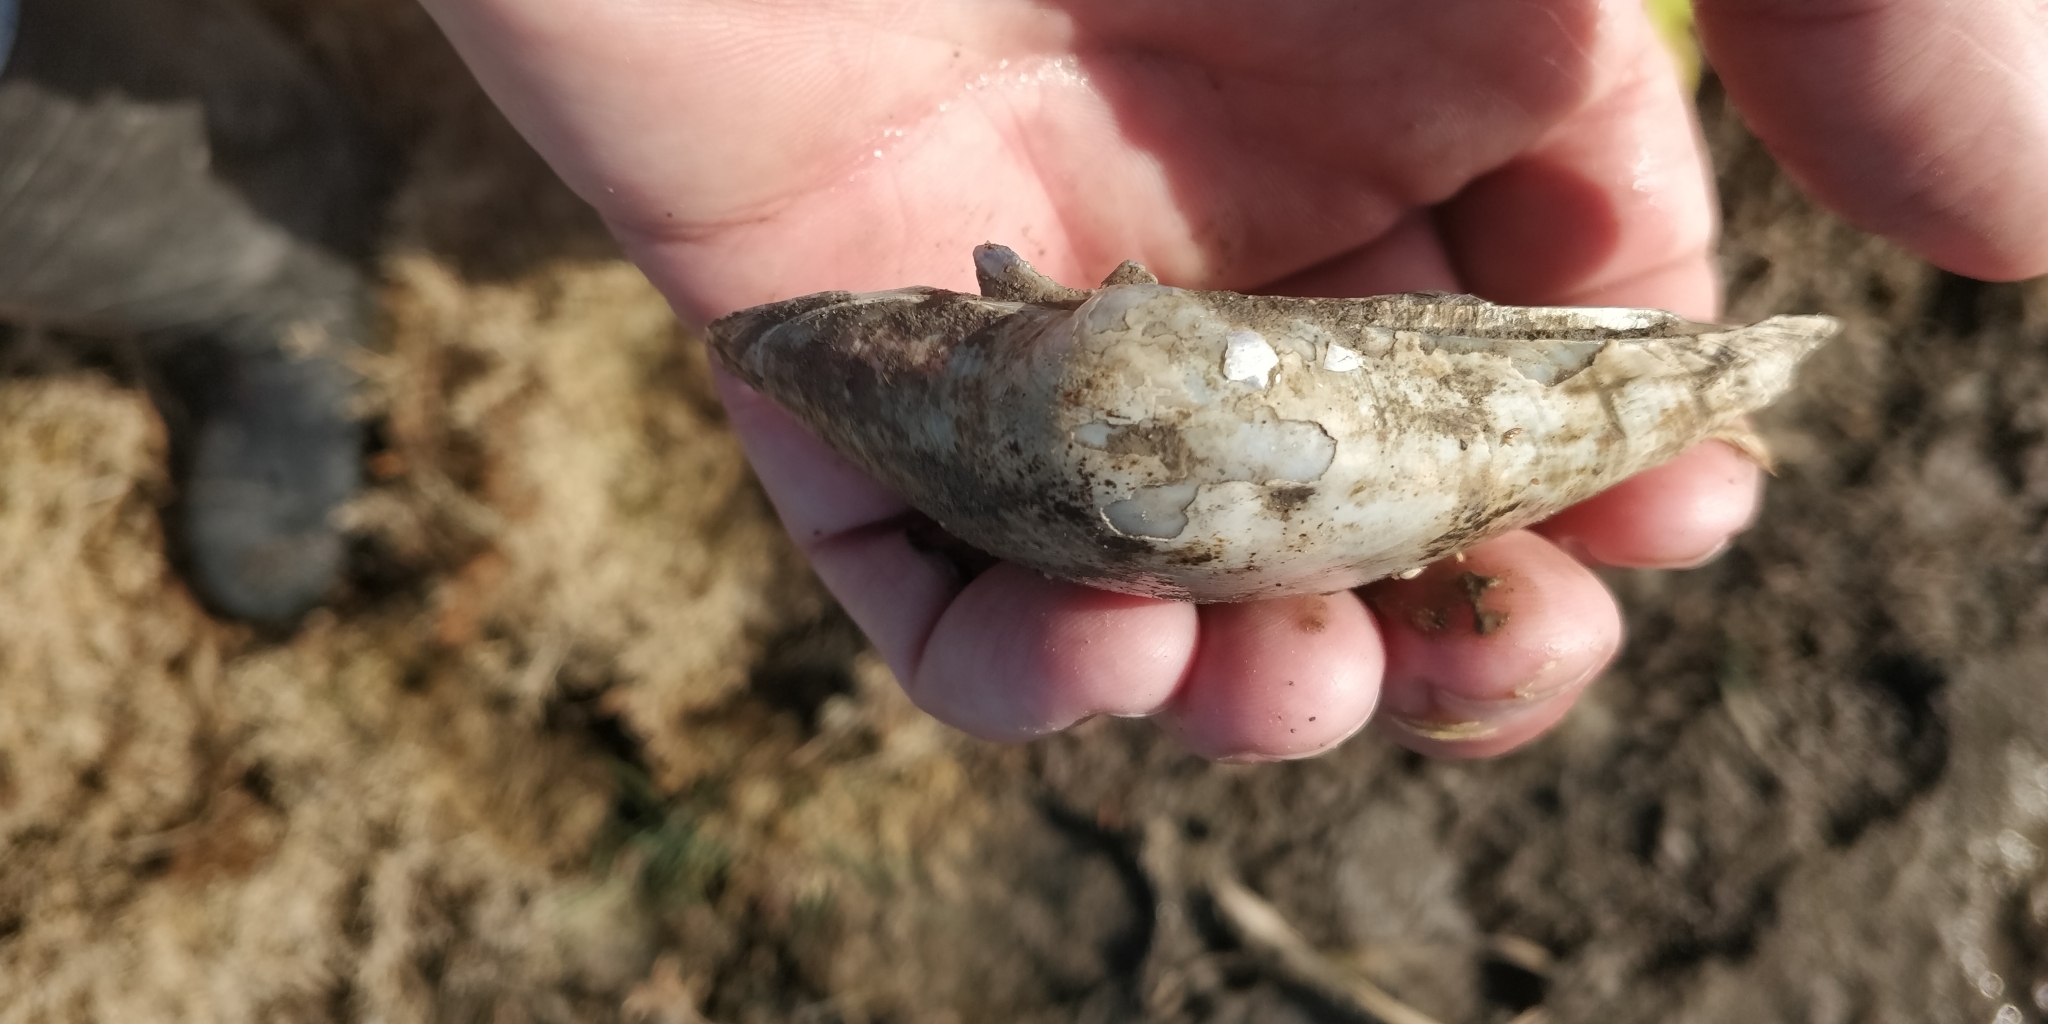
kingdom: Animalia
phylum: Mollusca
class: Bivalvia
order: Unionida
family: Unionidae
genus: Lampsilis
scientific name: Lampsilis cardium
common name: Plain pocketbook
